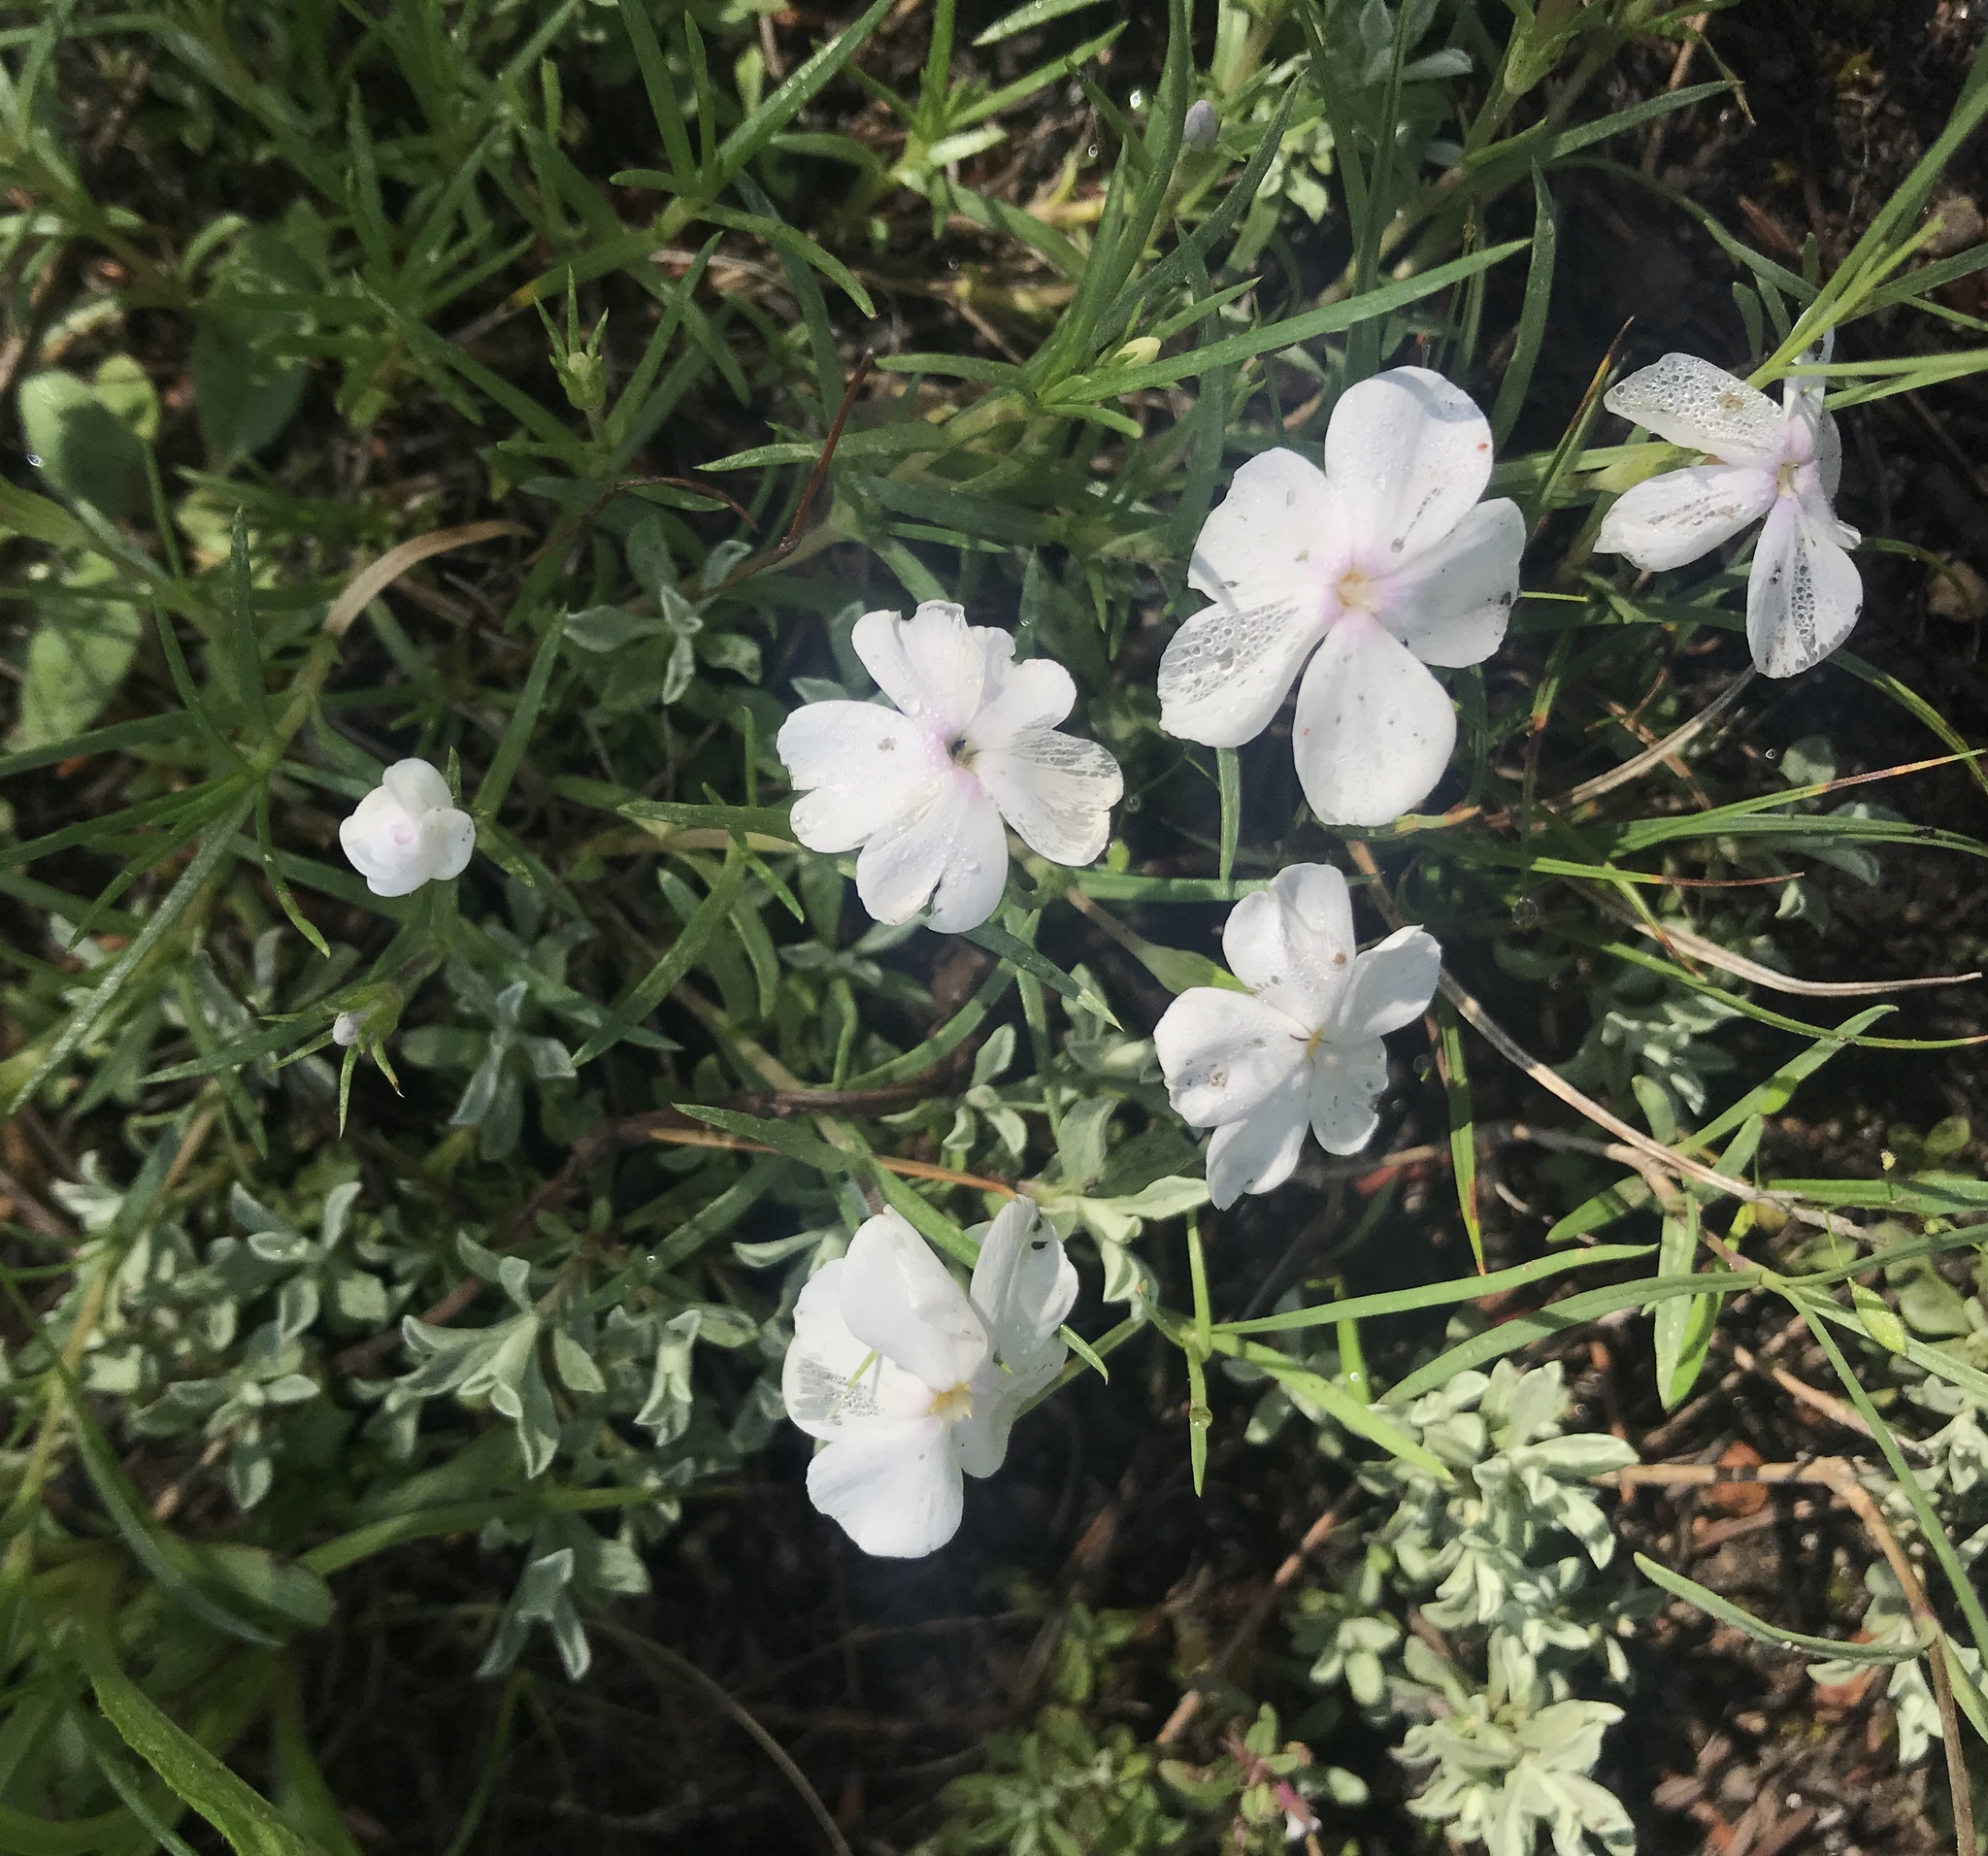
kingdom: Plantae
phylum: Tracheophyta
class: Magnoliopsida
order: Ericales
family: Polemoniaceae
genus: Phlox
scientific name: Phlox multiflora
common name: Rocky mountain phlox
